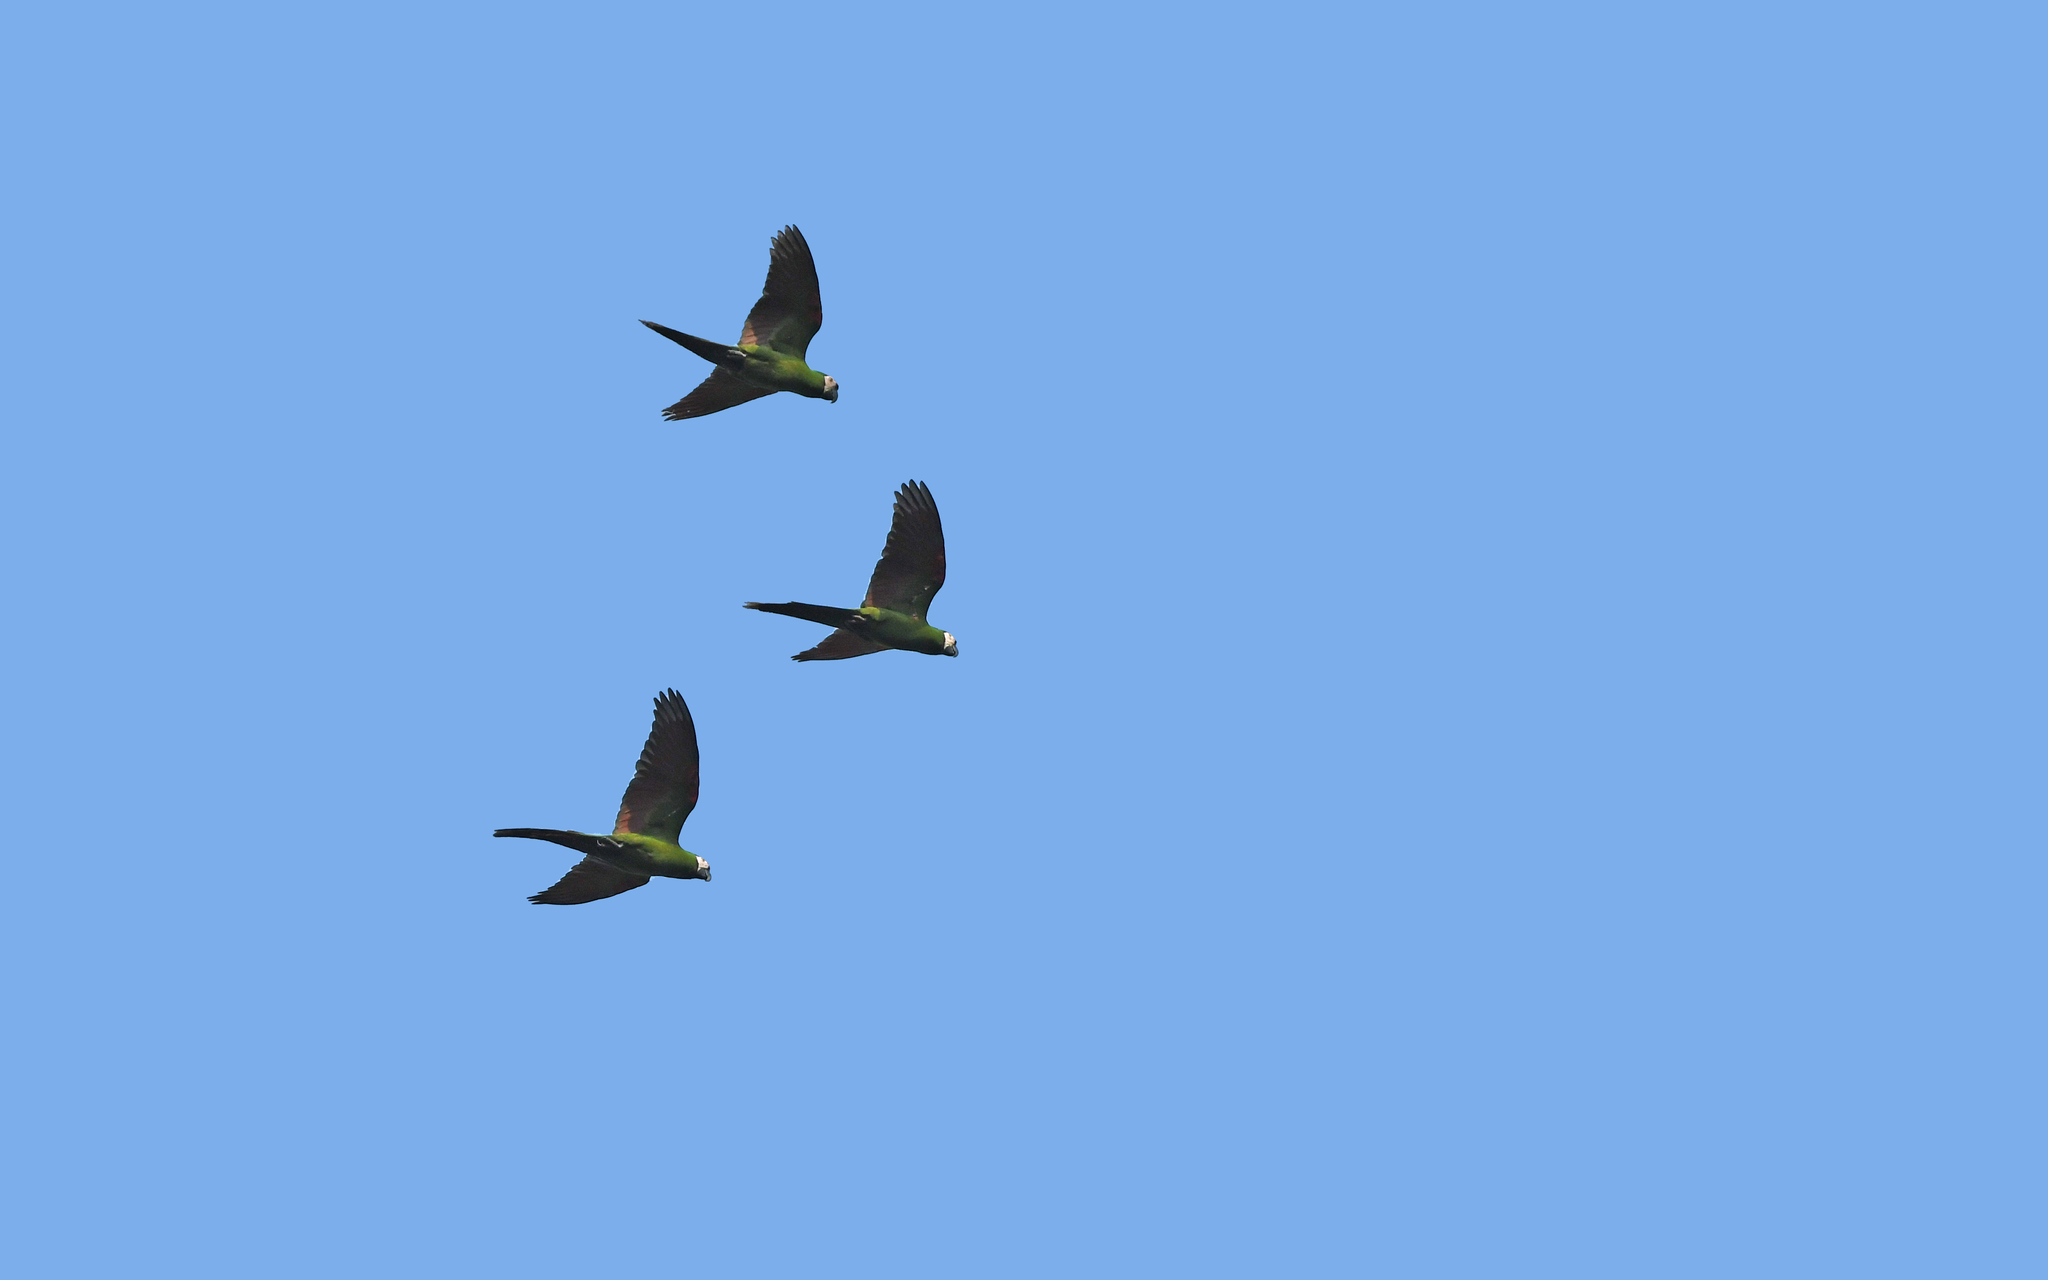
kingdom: Animalia
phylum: Chordata
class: Aves
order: Psittaciformes
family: Psittacidae
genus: Ara
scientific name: Ara severus
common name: Chestnut-fronted macaw
